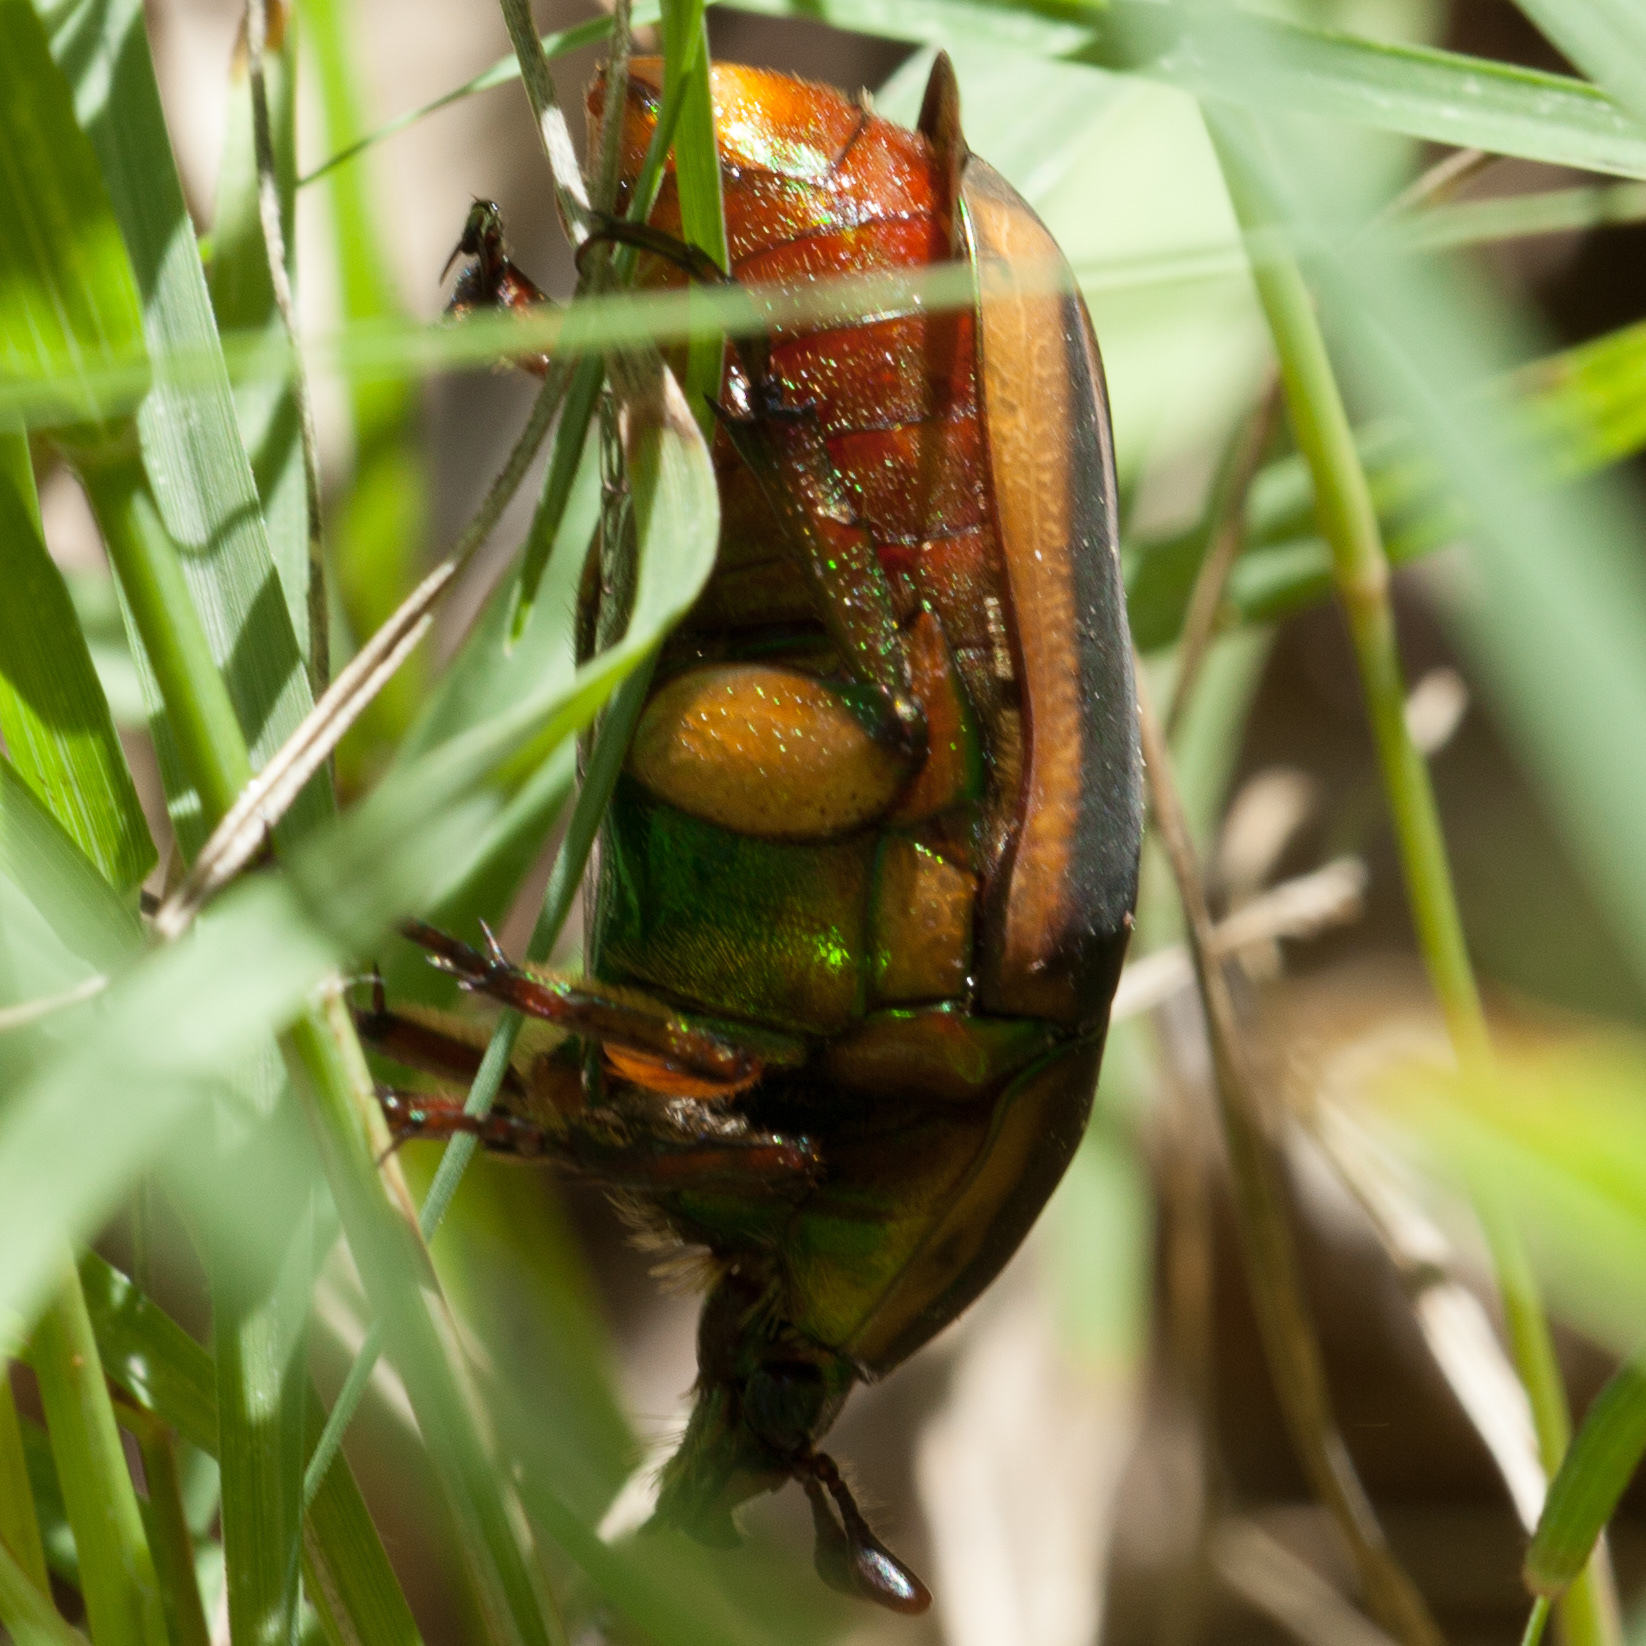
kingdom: Animalia
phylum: Arthropoda
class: Insecta
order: Coleoptera
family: Scarabaeidae
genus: Cotinis
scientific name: Cotinis nitida
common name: Common green june beetle
